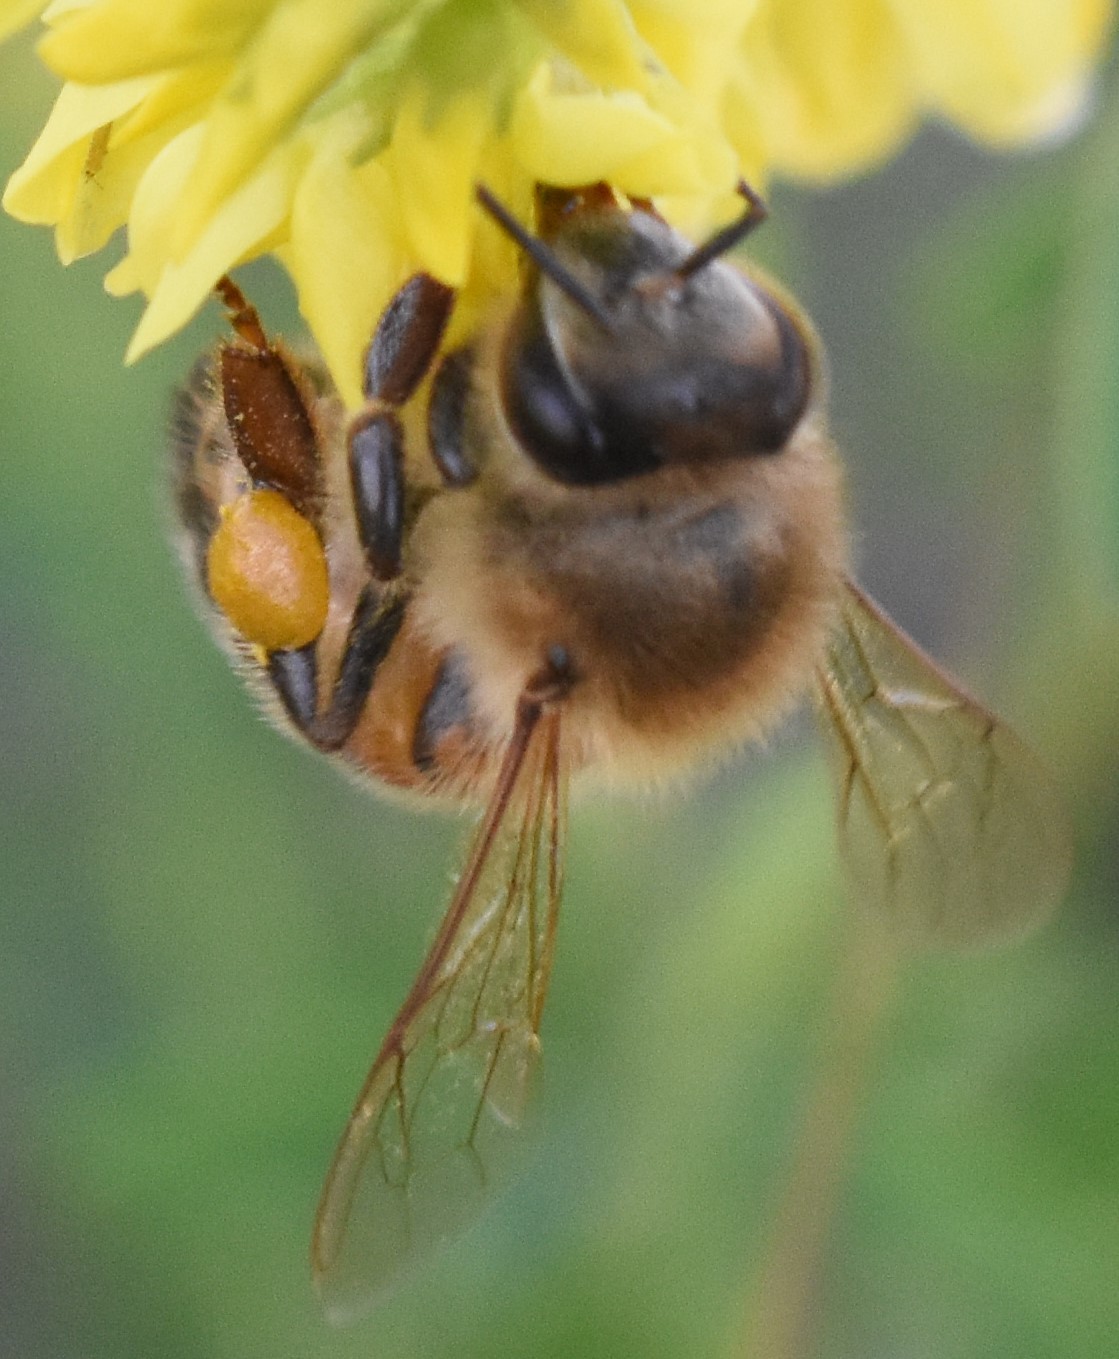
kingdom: Animalia
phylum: Arthropoda
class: Insecta
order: Hymenoptera
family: Apidae
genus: Apis
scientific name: Apis mellifera
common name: Honey bee
